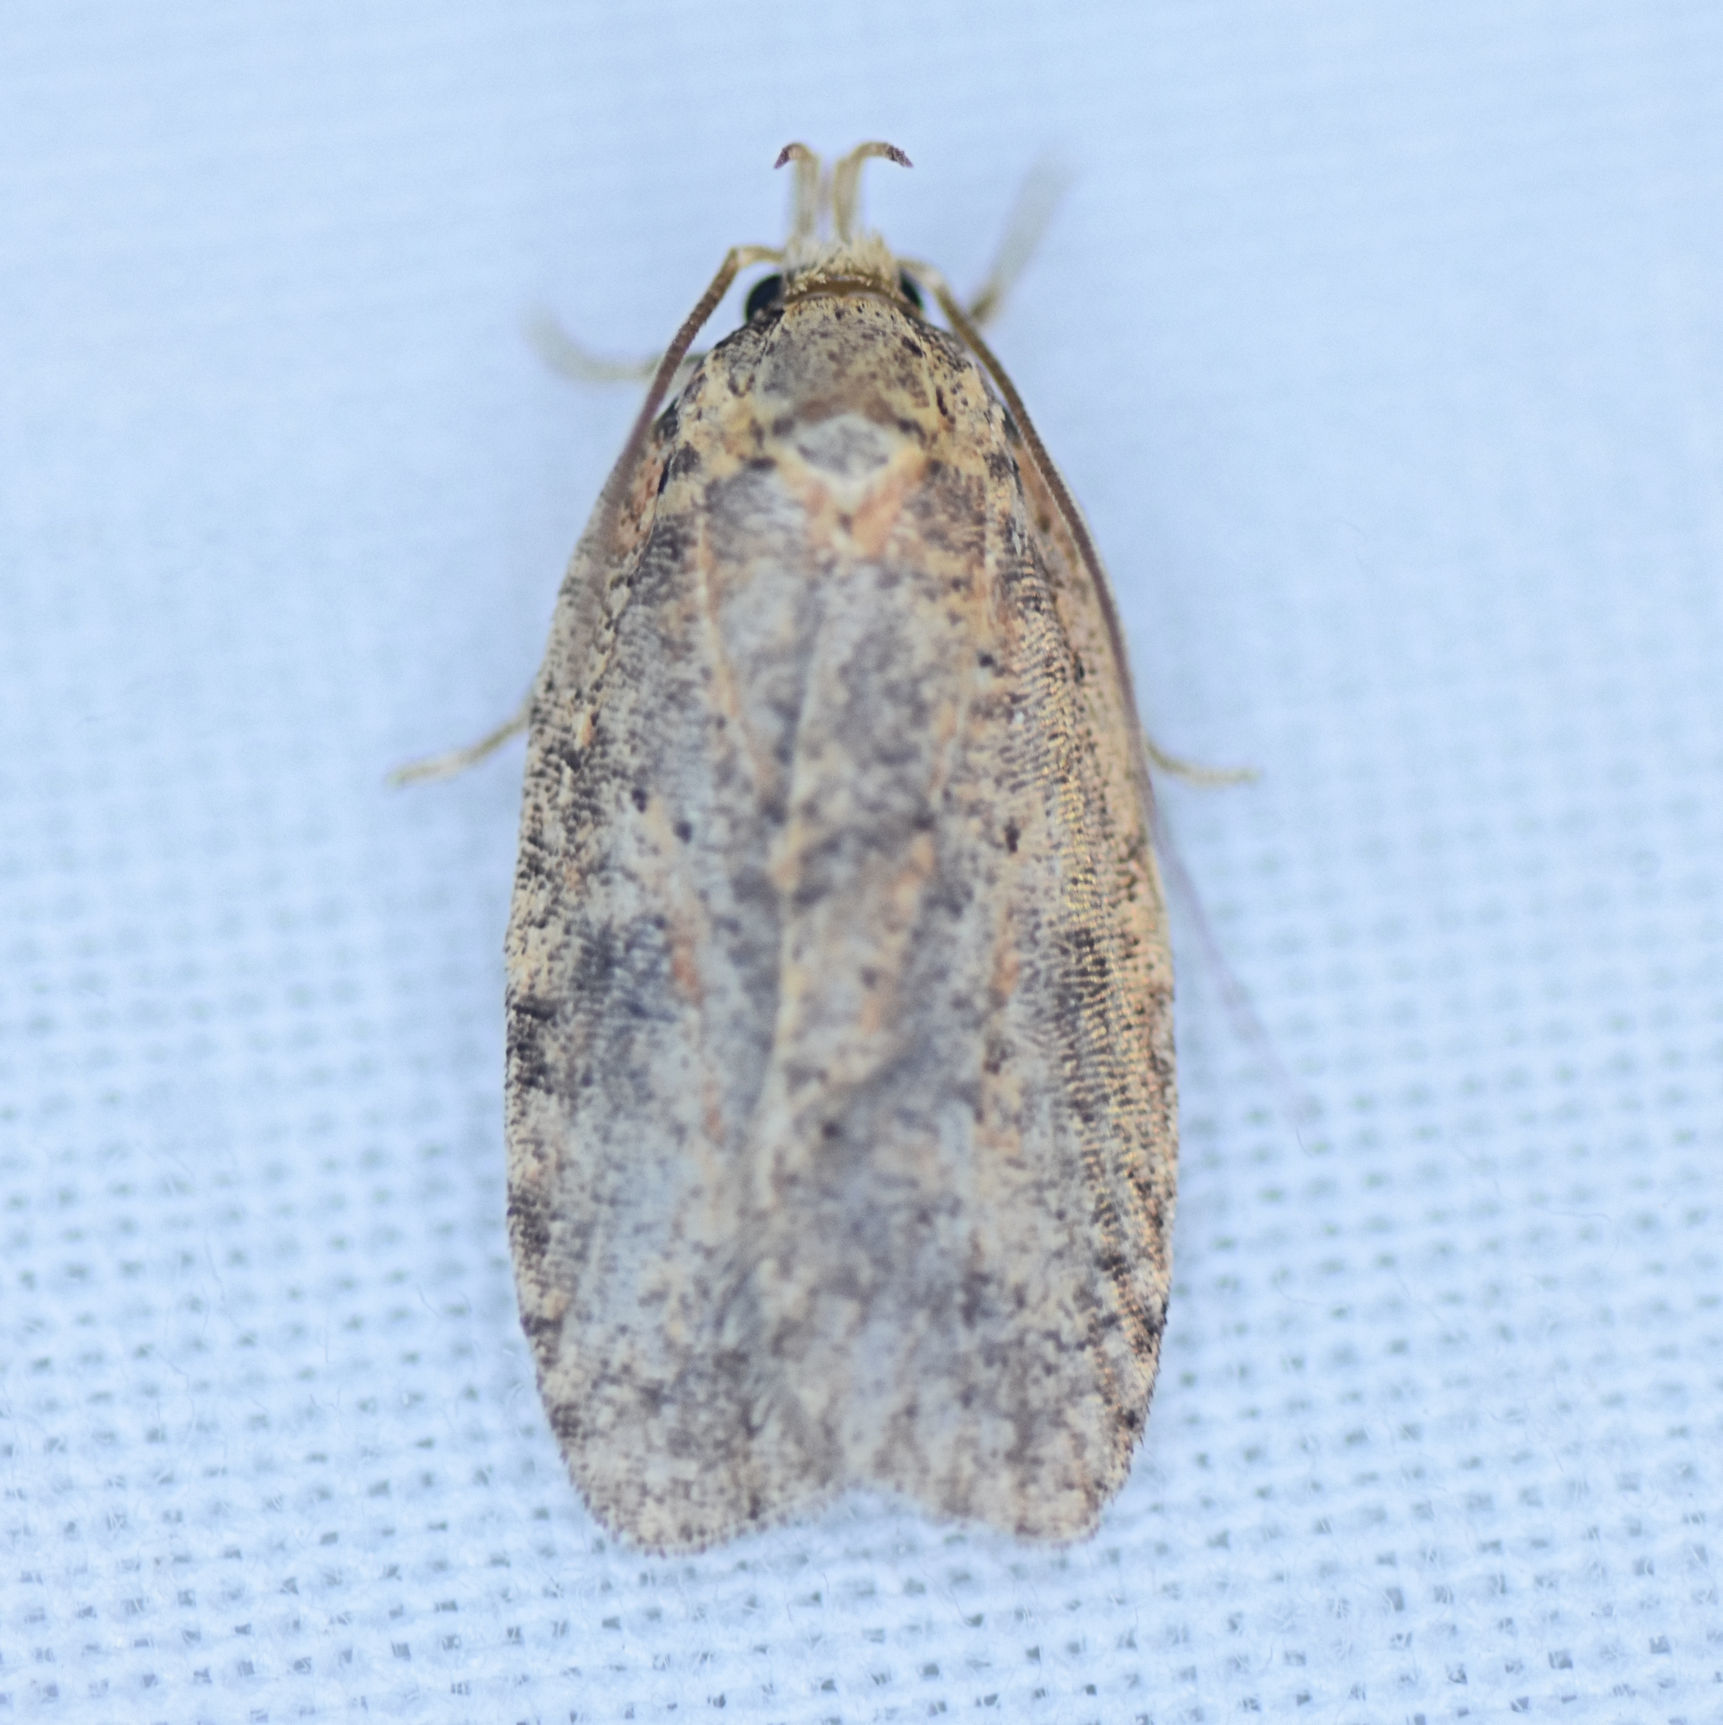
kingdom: Animalia
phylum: Arthropoda
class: Insecta
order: Lepidoptera
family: Depressariidae
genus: Agonopterix
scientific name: Agonopterix thelmae
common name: Thelma's agonopterix moth
